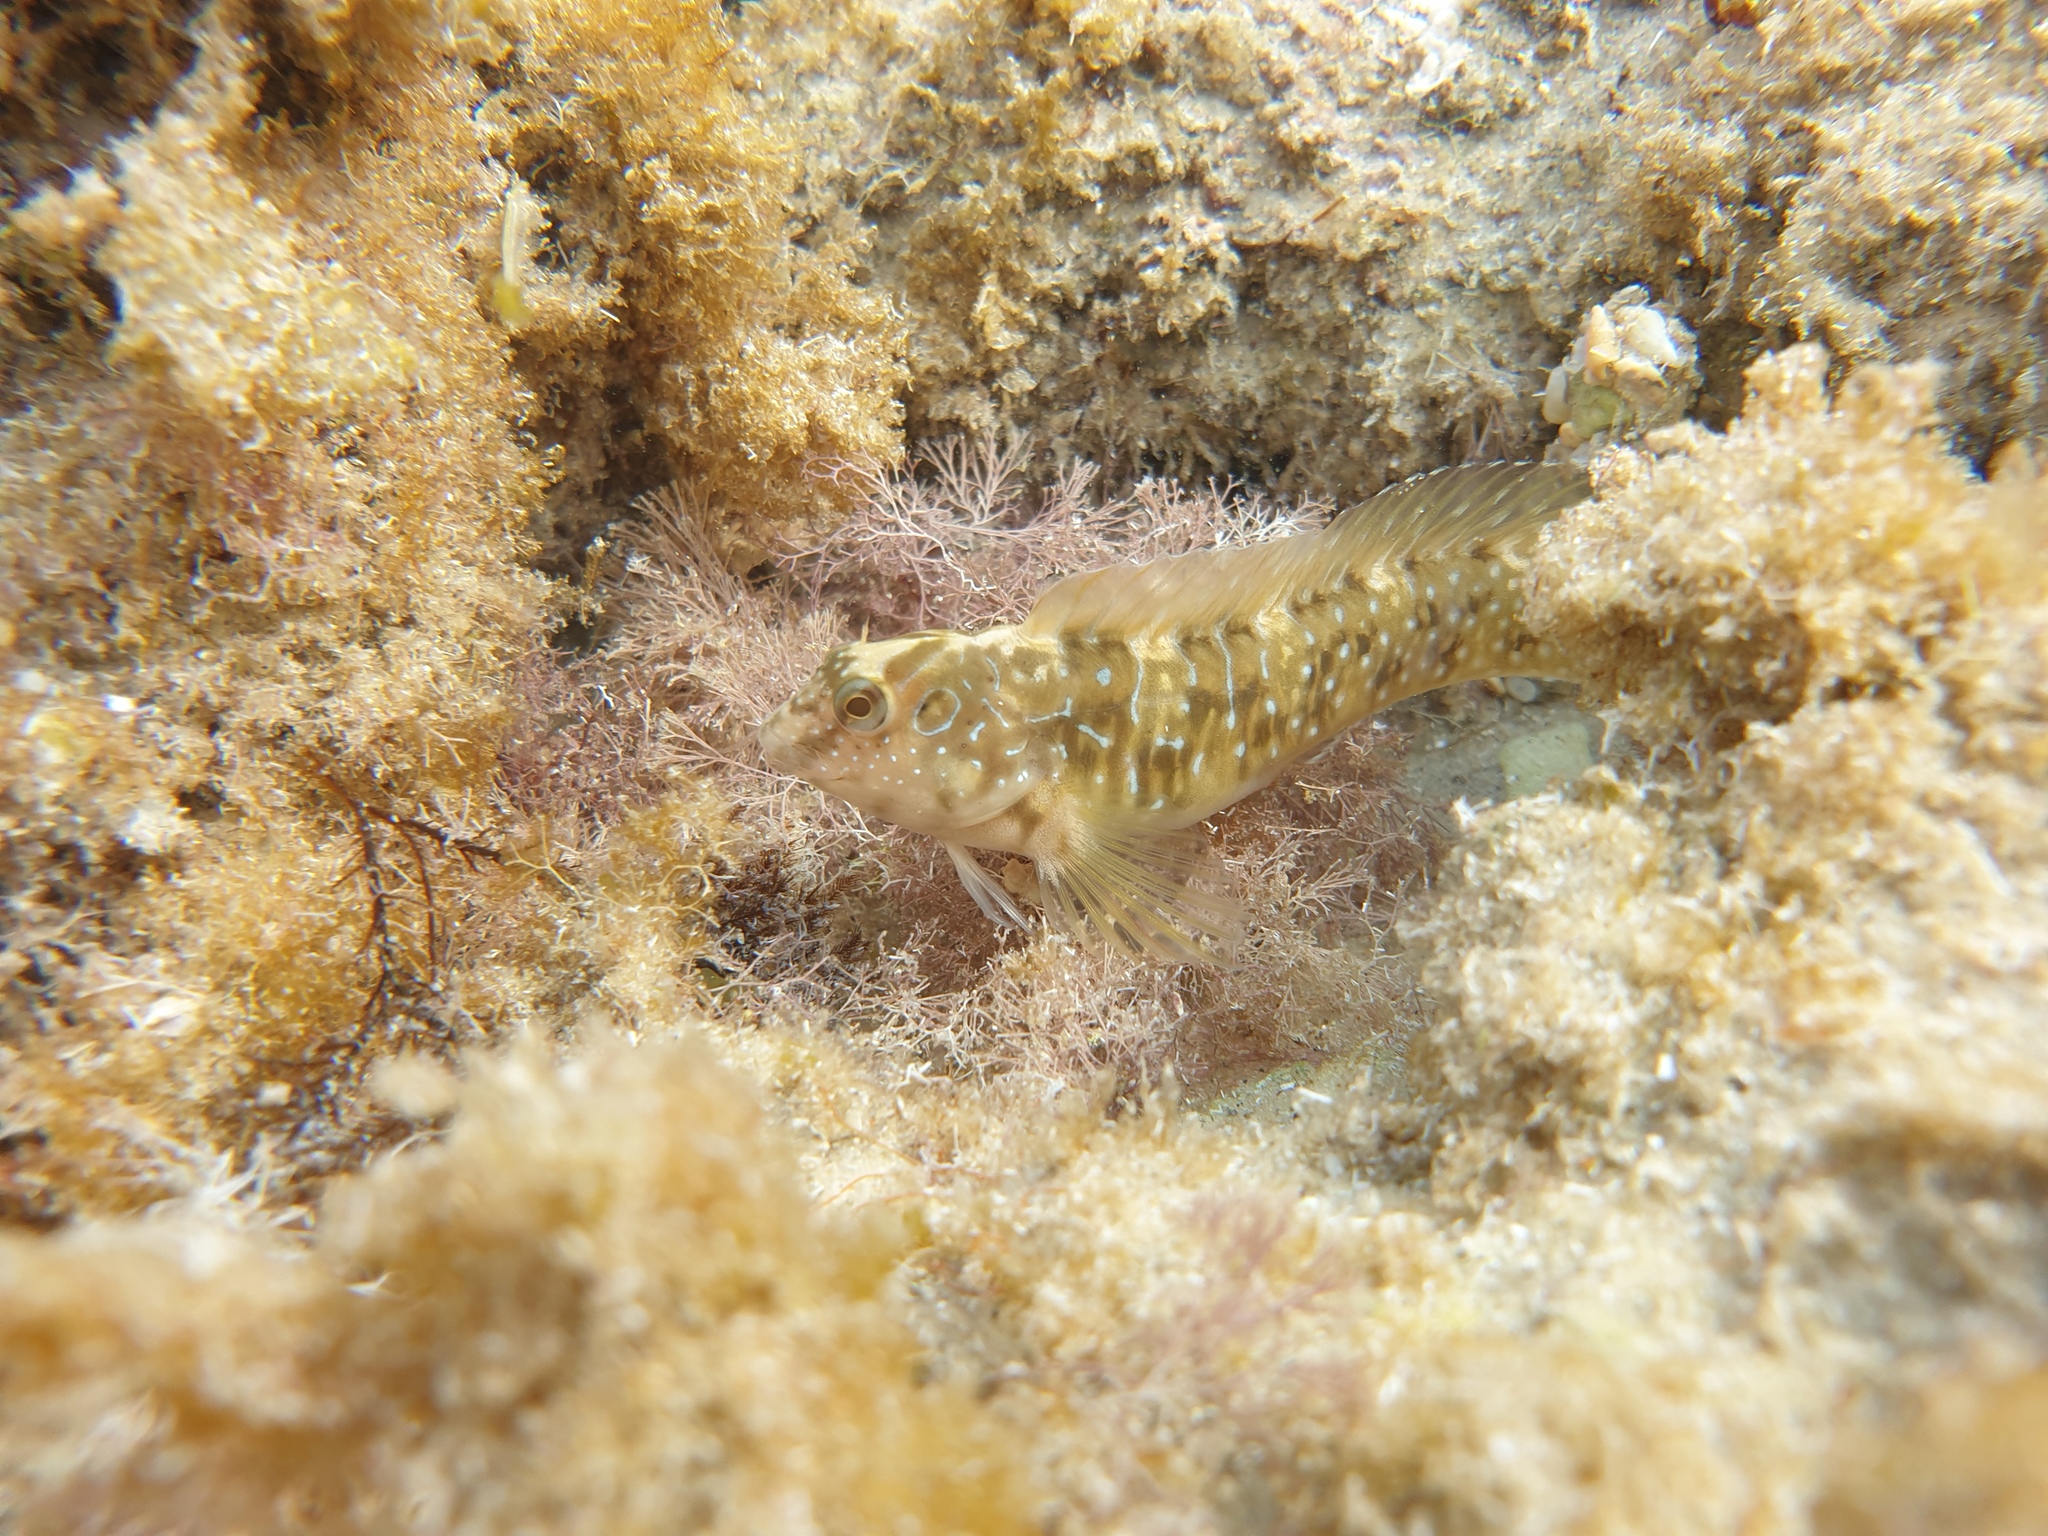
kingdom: Animalia
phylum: Chordata
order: Perciformes
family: Blenniidae
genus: Salaria
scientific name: Salaria pavo
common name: Peacock blenny
